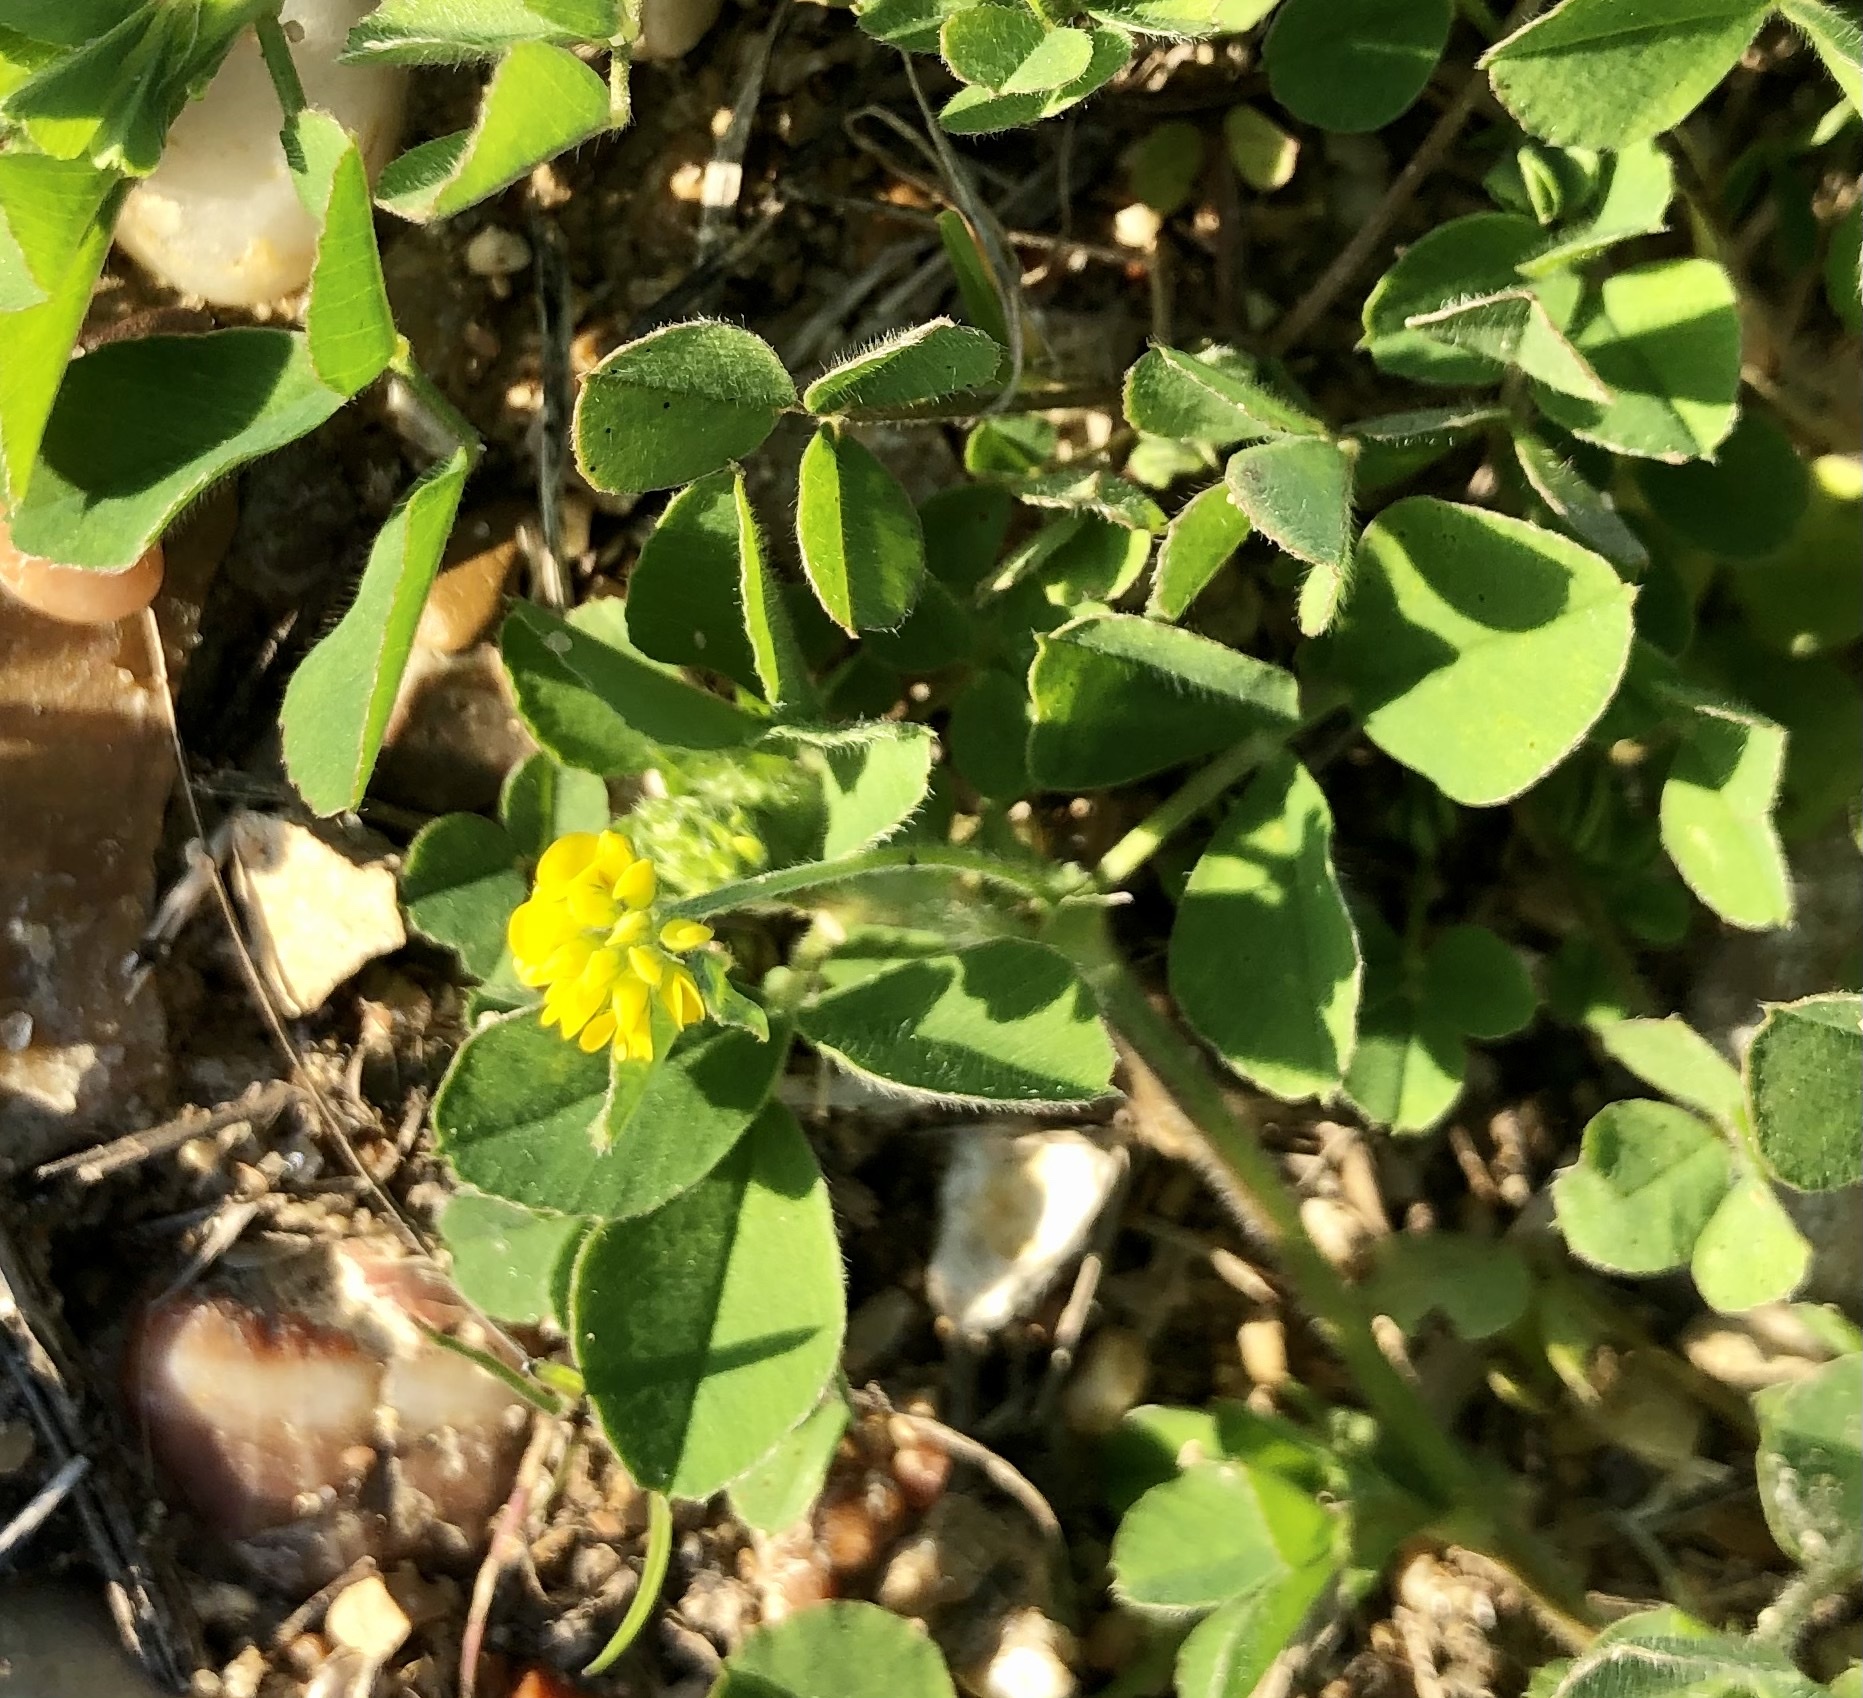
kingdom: Plantae
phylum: Tracheophyta
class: Magnoliopsida
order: Fabales
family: Fabaceae
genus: Medicago
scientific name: Medicago lupulina
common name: Black medick
